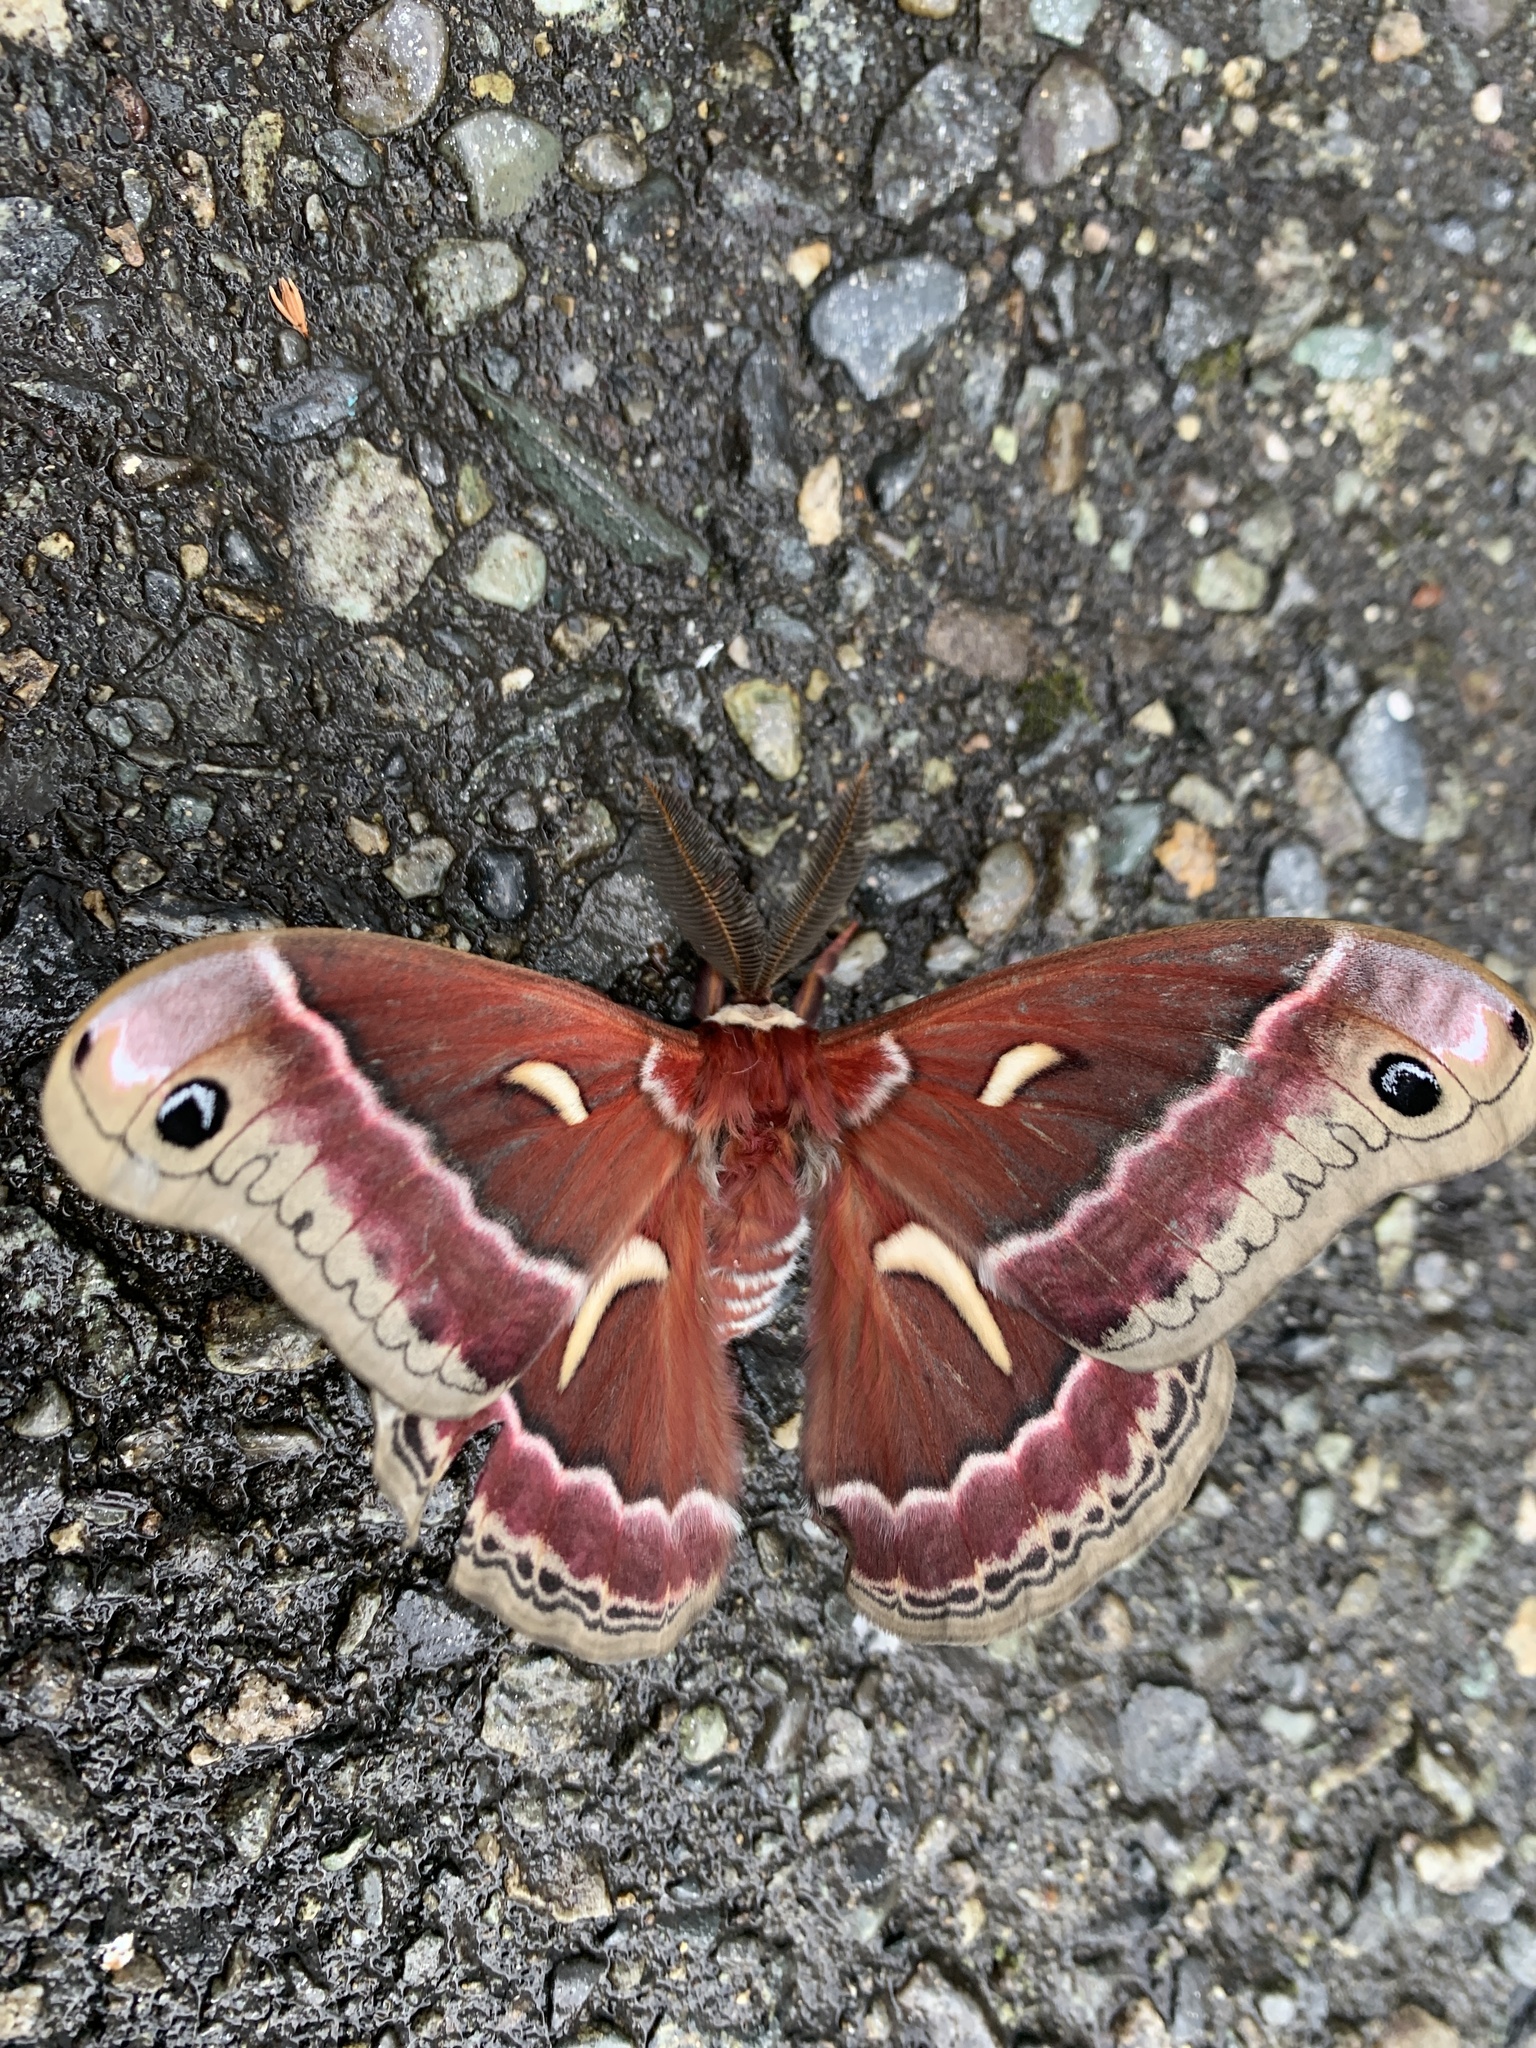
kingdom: Animalia
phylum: Arthropoda
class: Insecta
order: Lepidoptera
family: Saturniidae
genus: Hyalophora
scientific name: Hyalophora euryalus
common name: Ceanothus silkmoth
